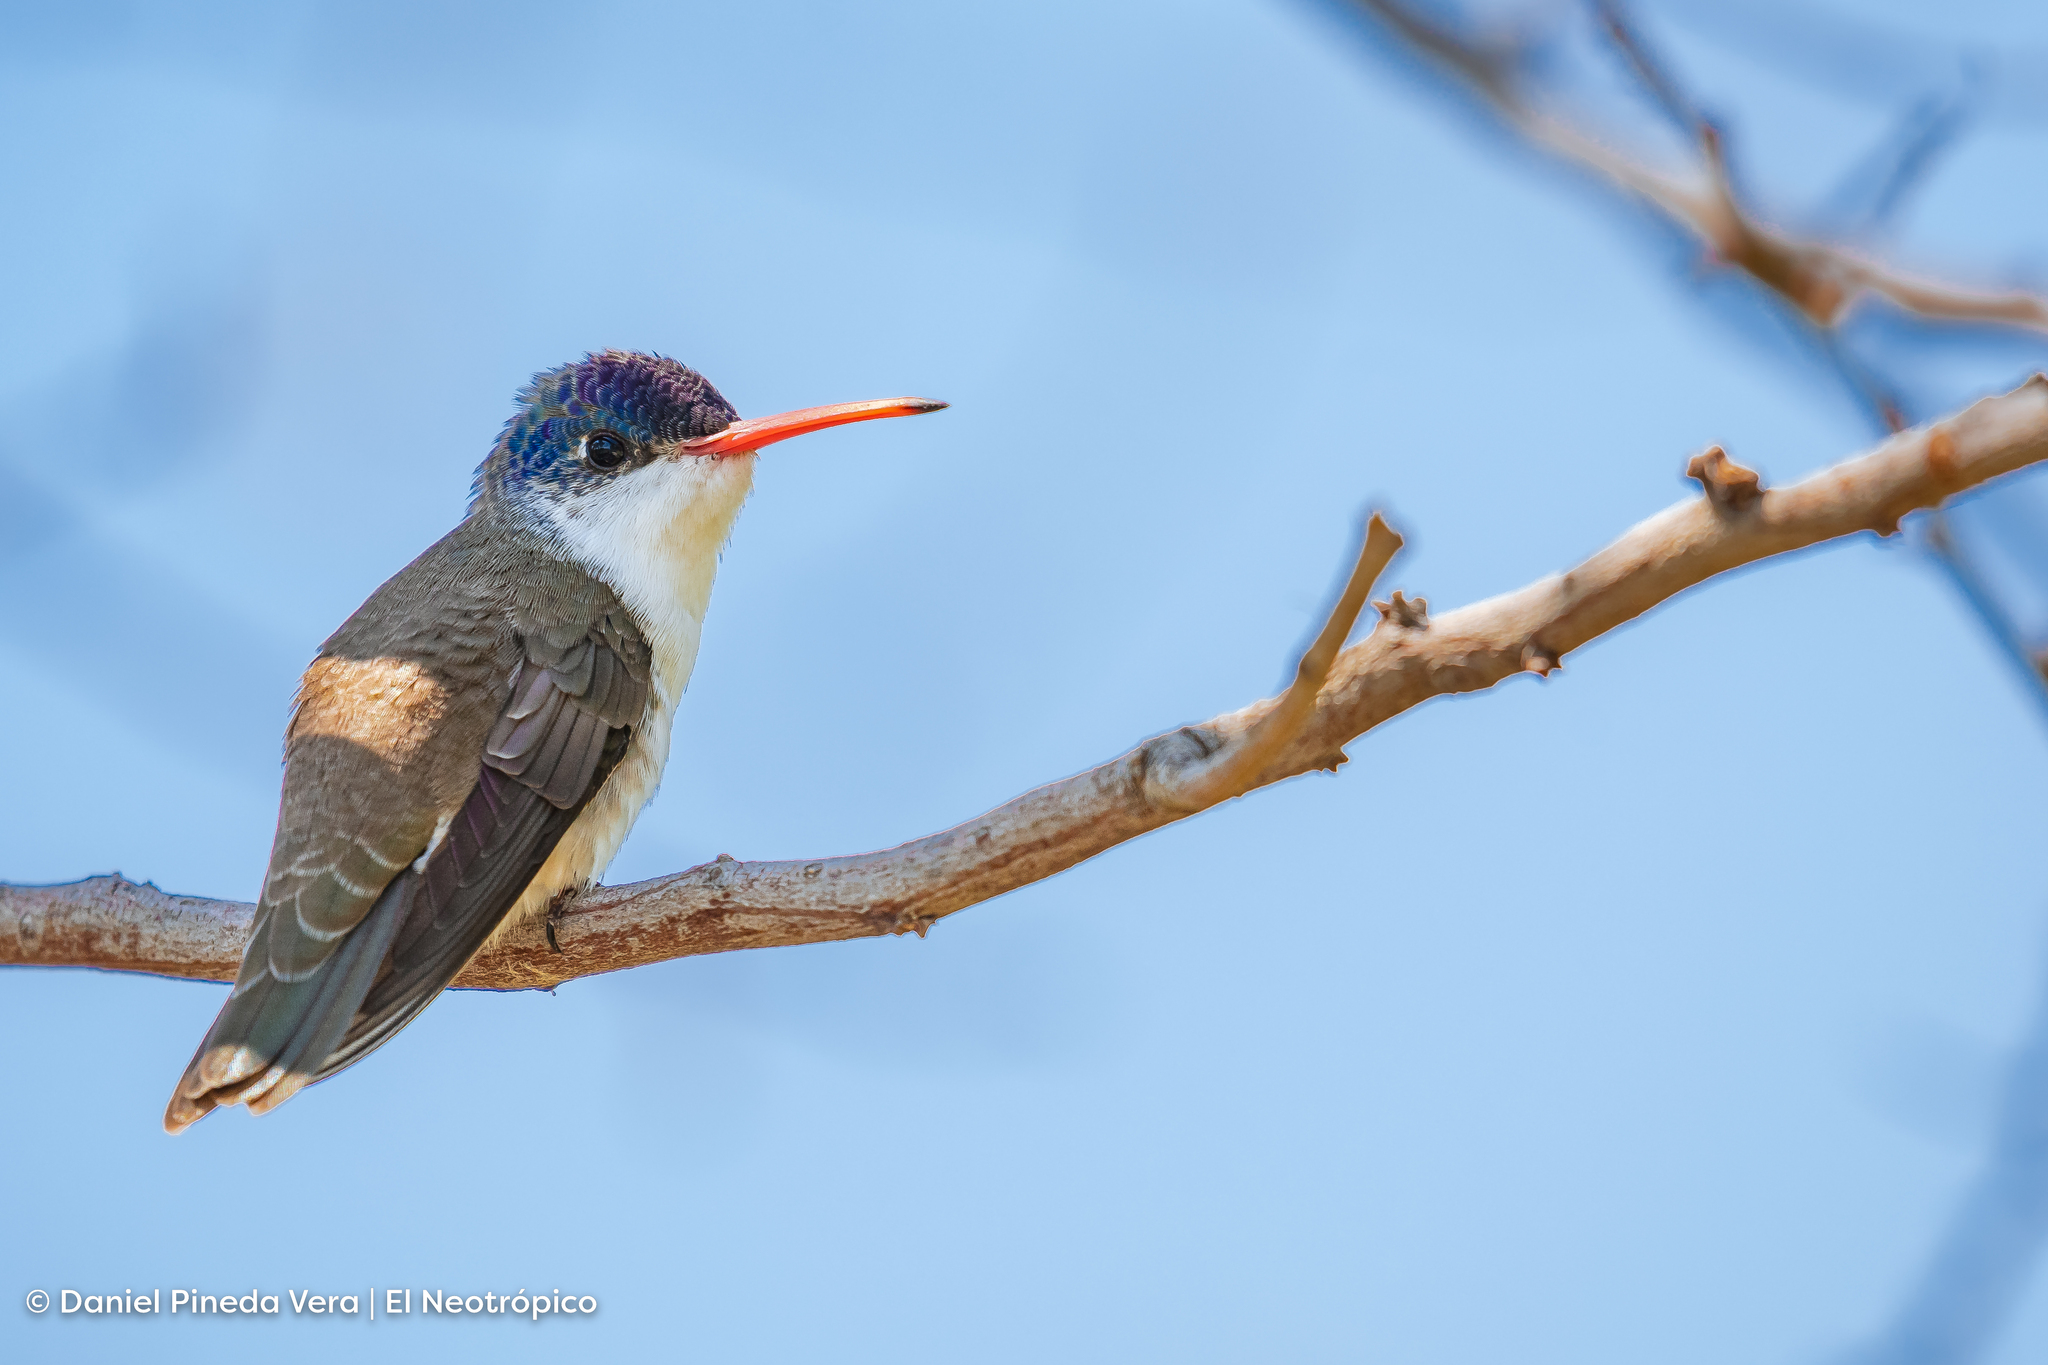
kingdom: Animalia
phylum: Chordata
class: Aves
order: Apodiformes
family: Trochilidae
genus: Leucolia
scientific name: Leucolia violiceps
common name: Violet-crowned hummingbird
